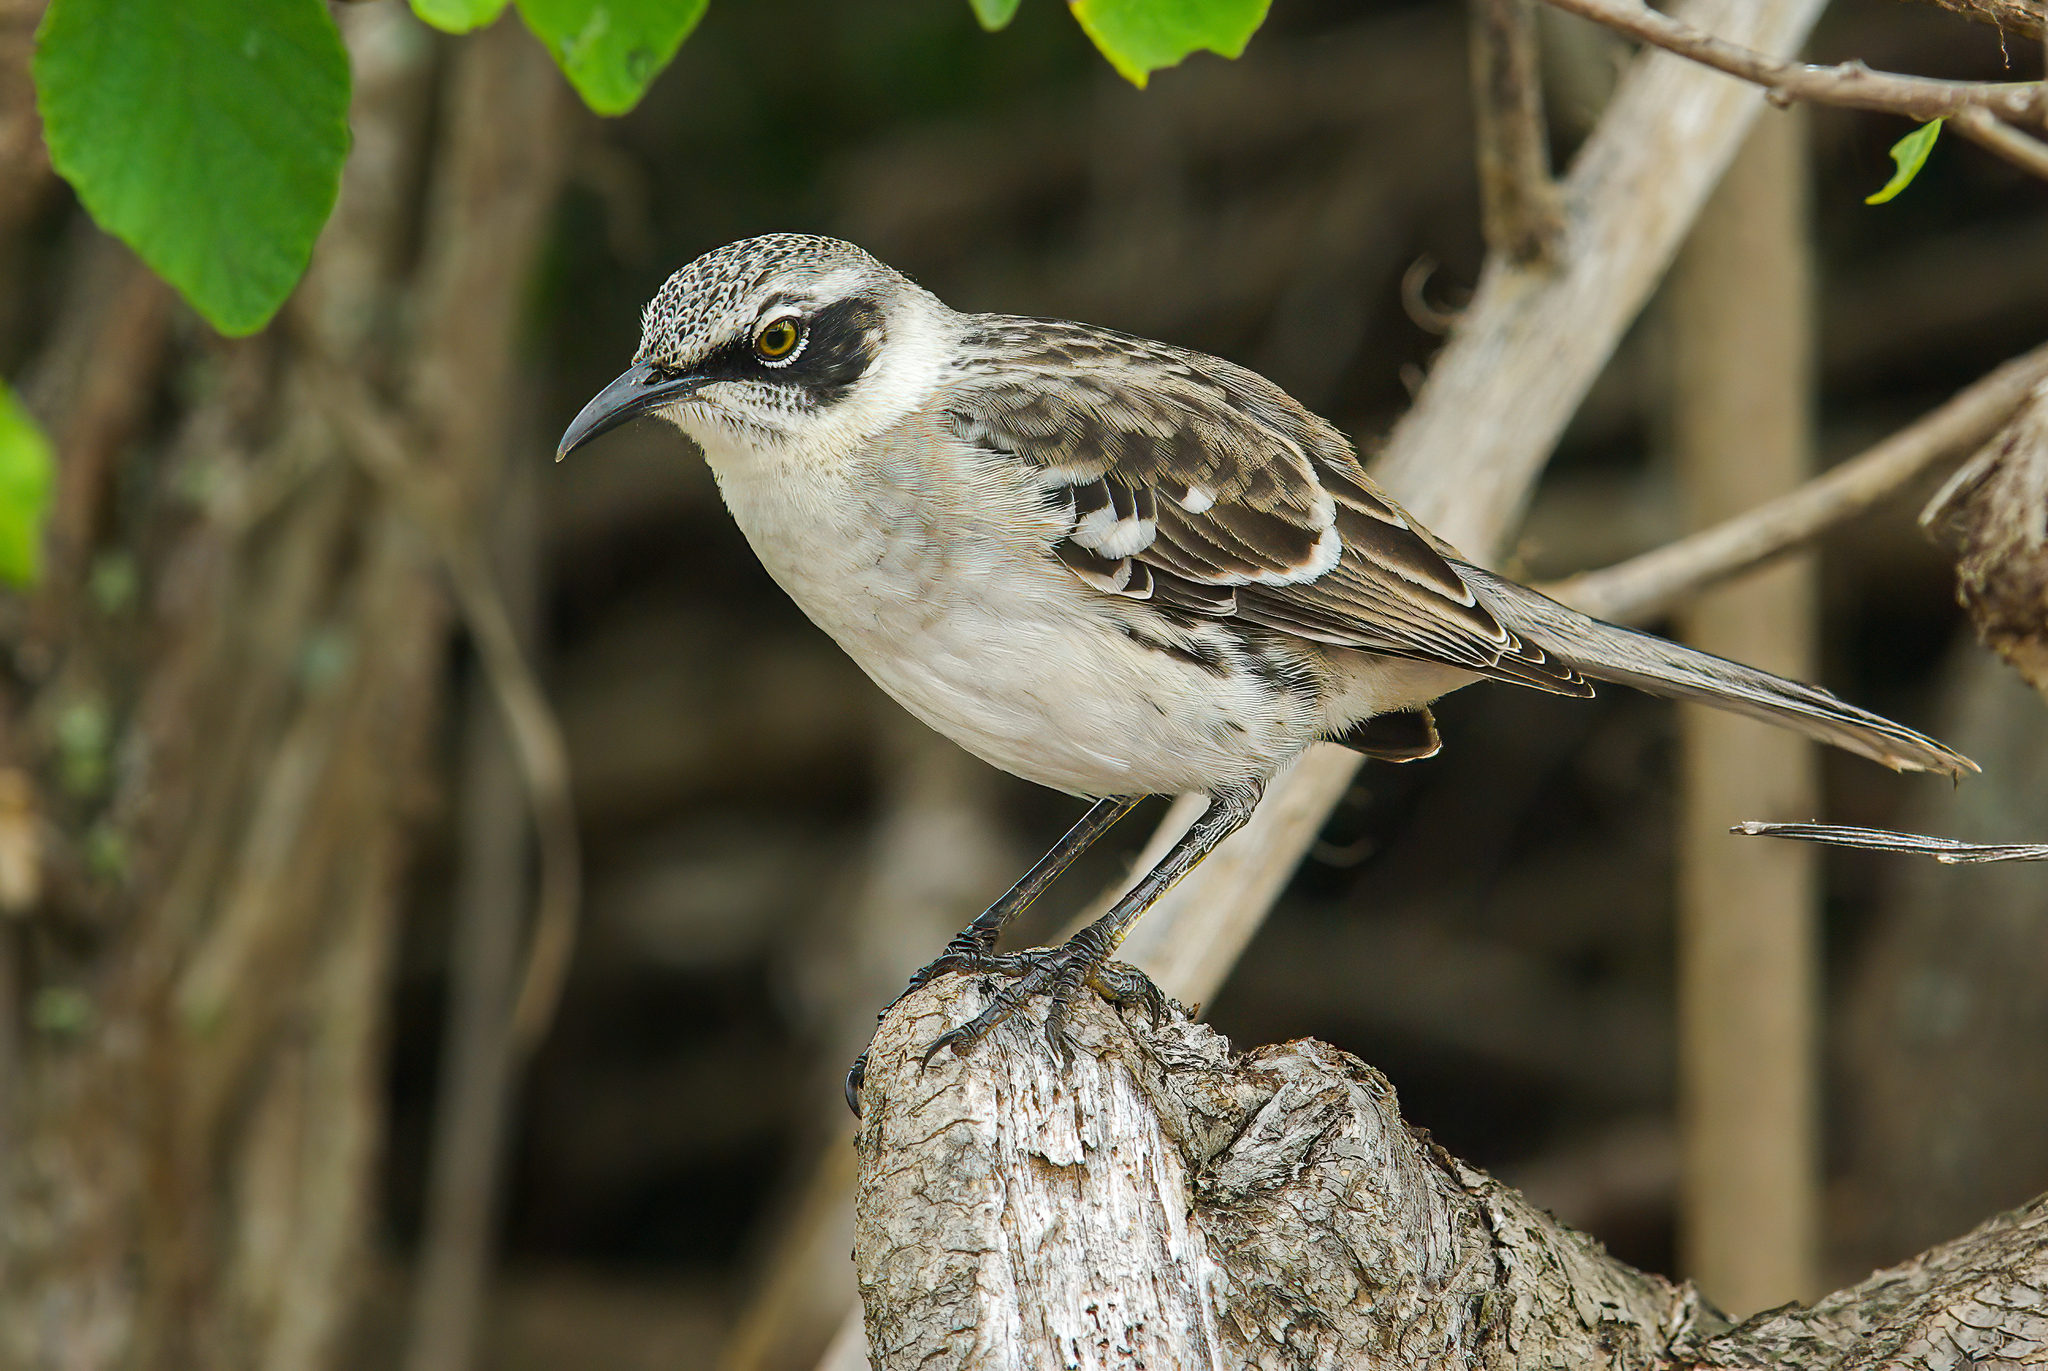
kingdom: Animalia
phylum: Chordata
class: Aves
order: Passeriformes
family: Mimidae
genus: Mimus
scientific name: Mimus parvulus
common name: Galapagos mockingbird
